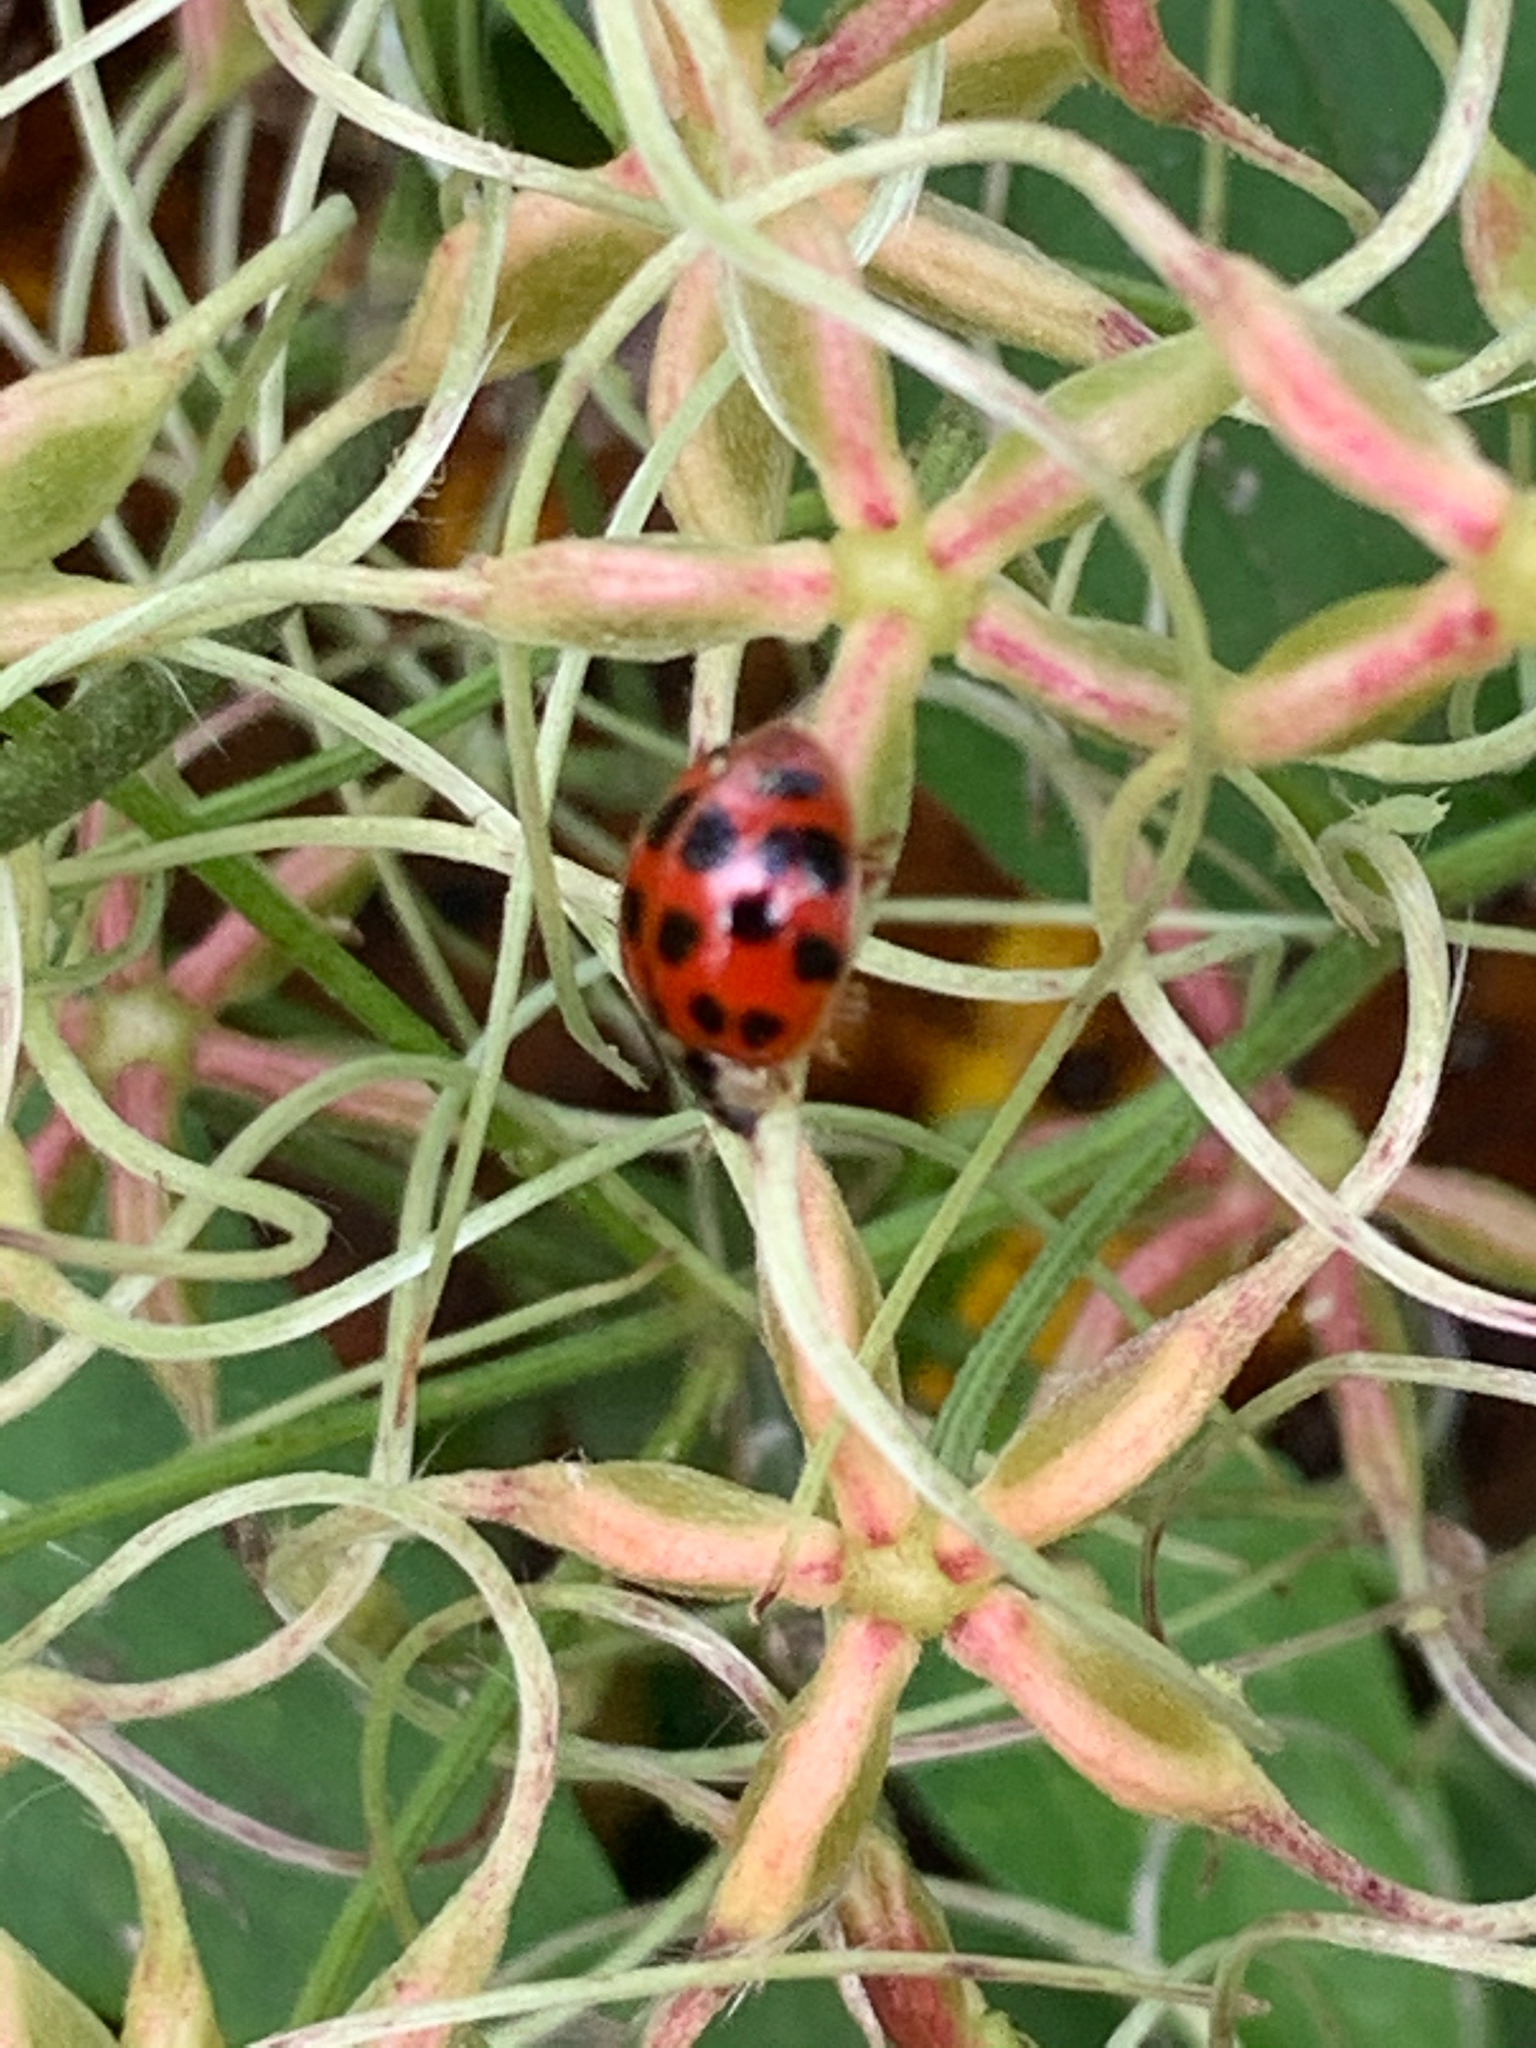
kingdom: Animalia
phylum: Arthropoda
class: Insecta
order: Coleoptera
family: Coccinellidae
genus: Harmonia
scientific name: Harmonia axyridis
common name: Harlequin ladybird
